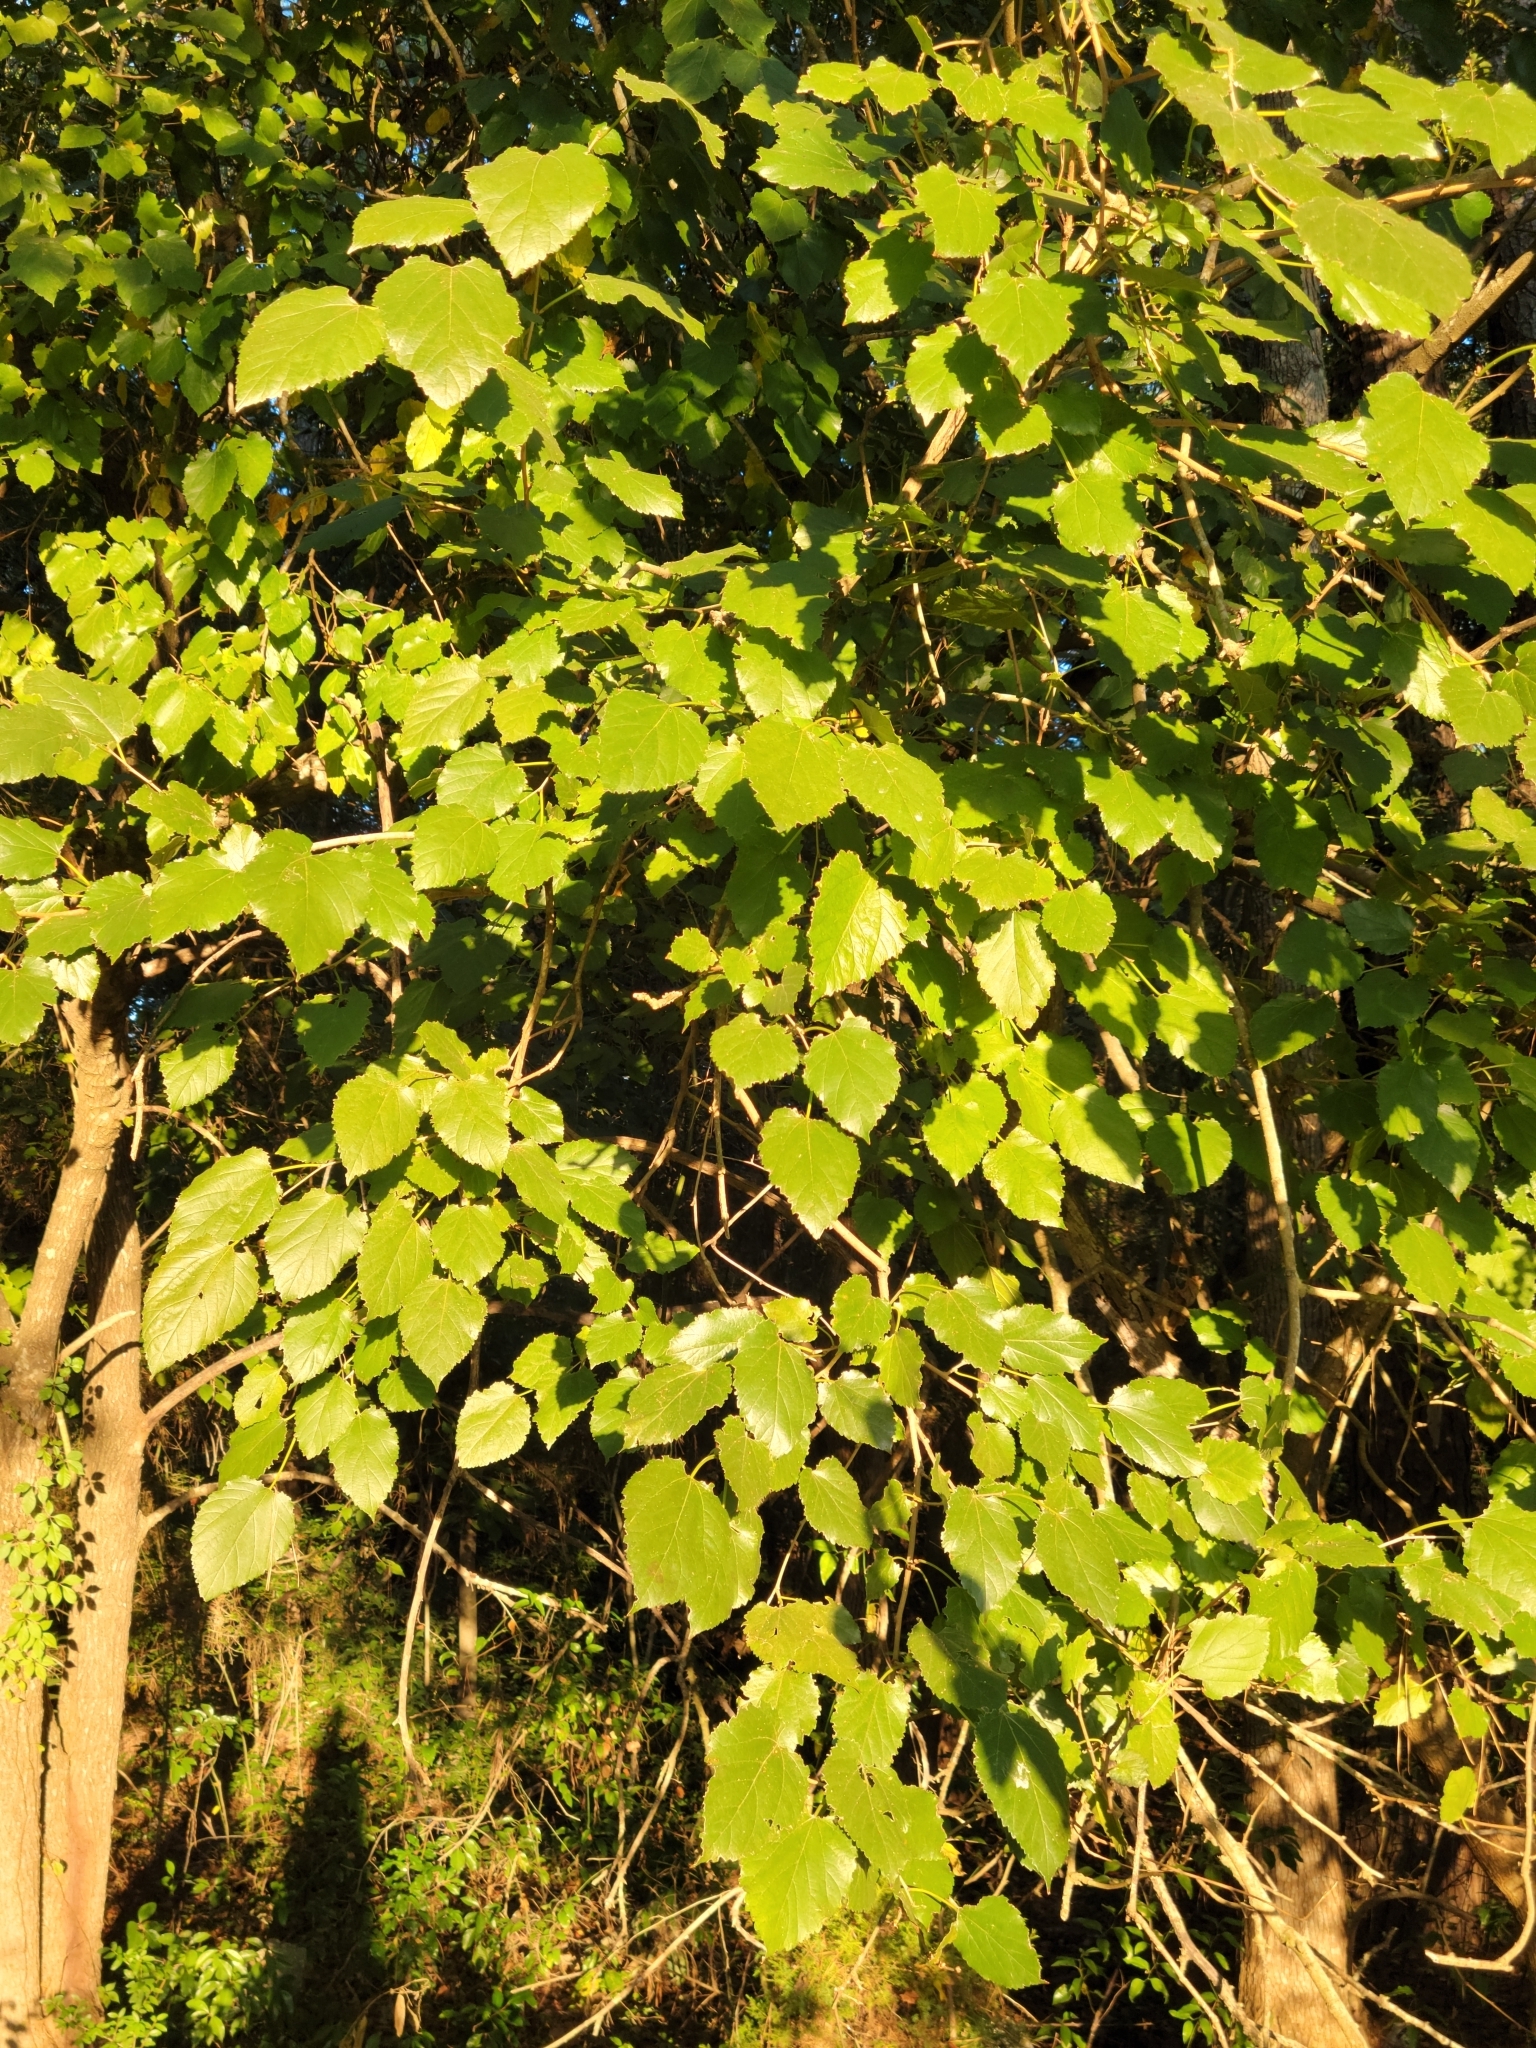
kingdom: Plantae
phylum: Tracheophyta
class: Magnoliopsida
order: Rosales
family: Moraceae
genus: Morus
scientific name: Morus alba
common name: White mulberry
